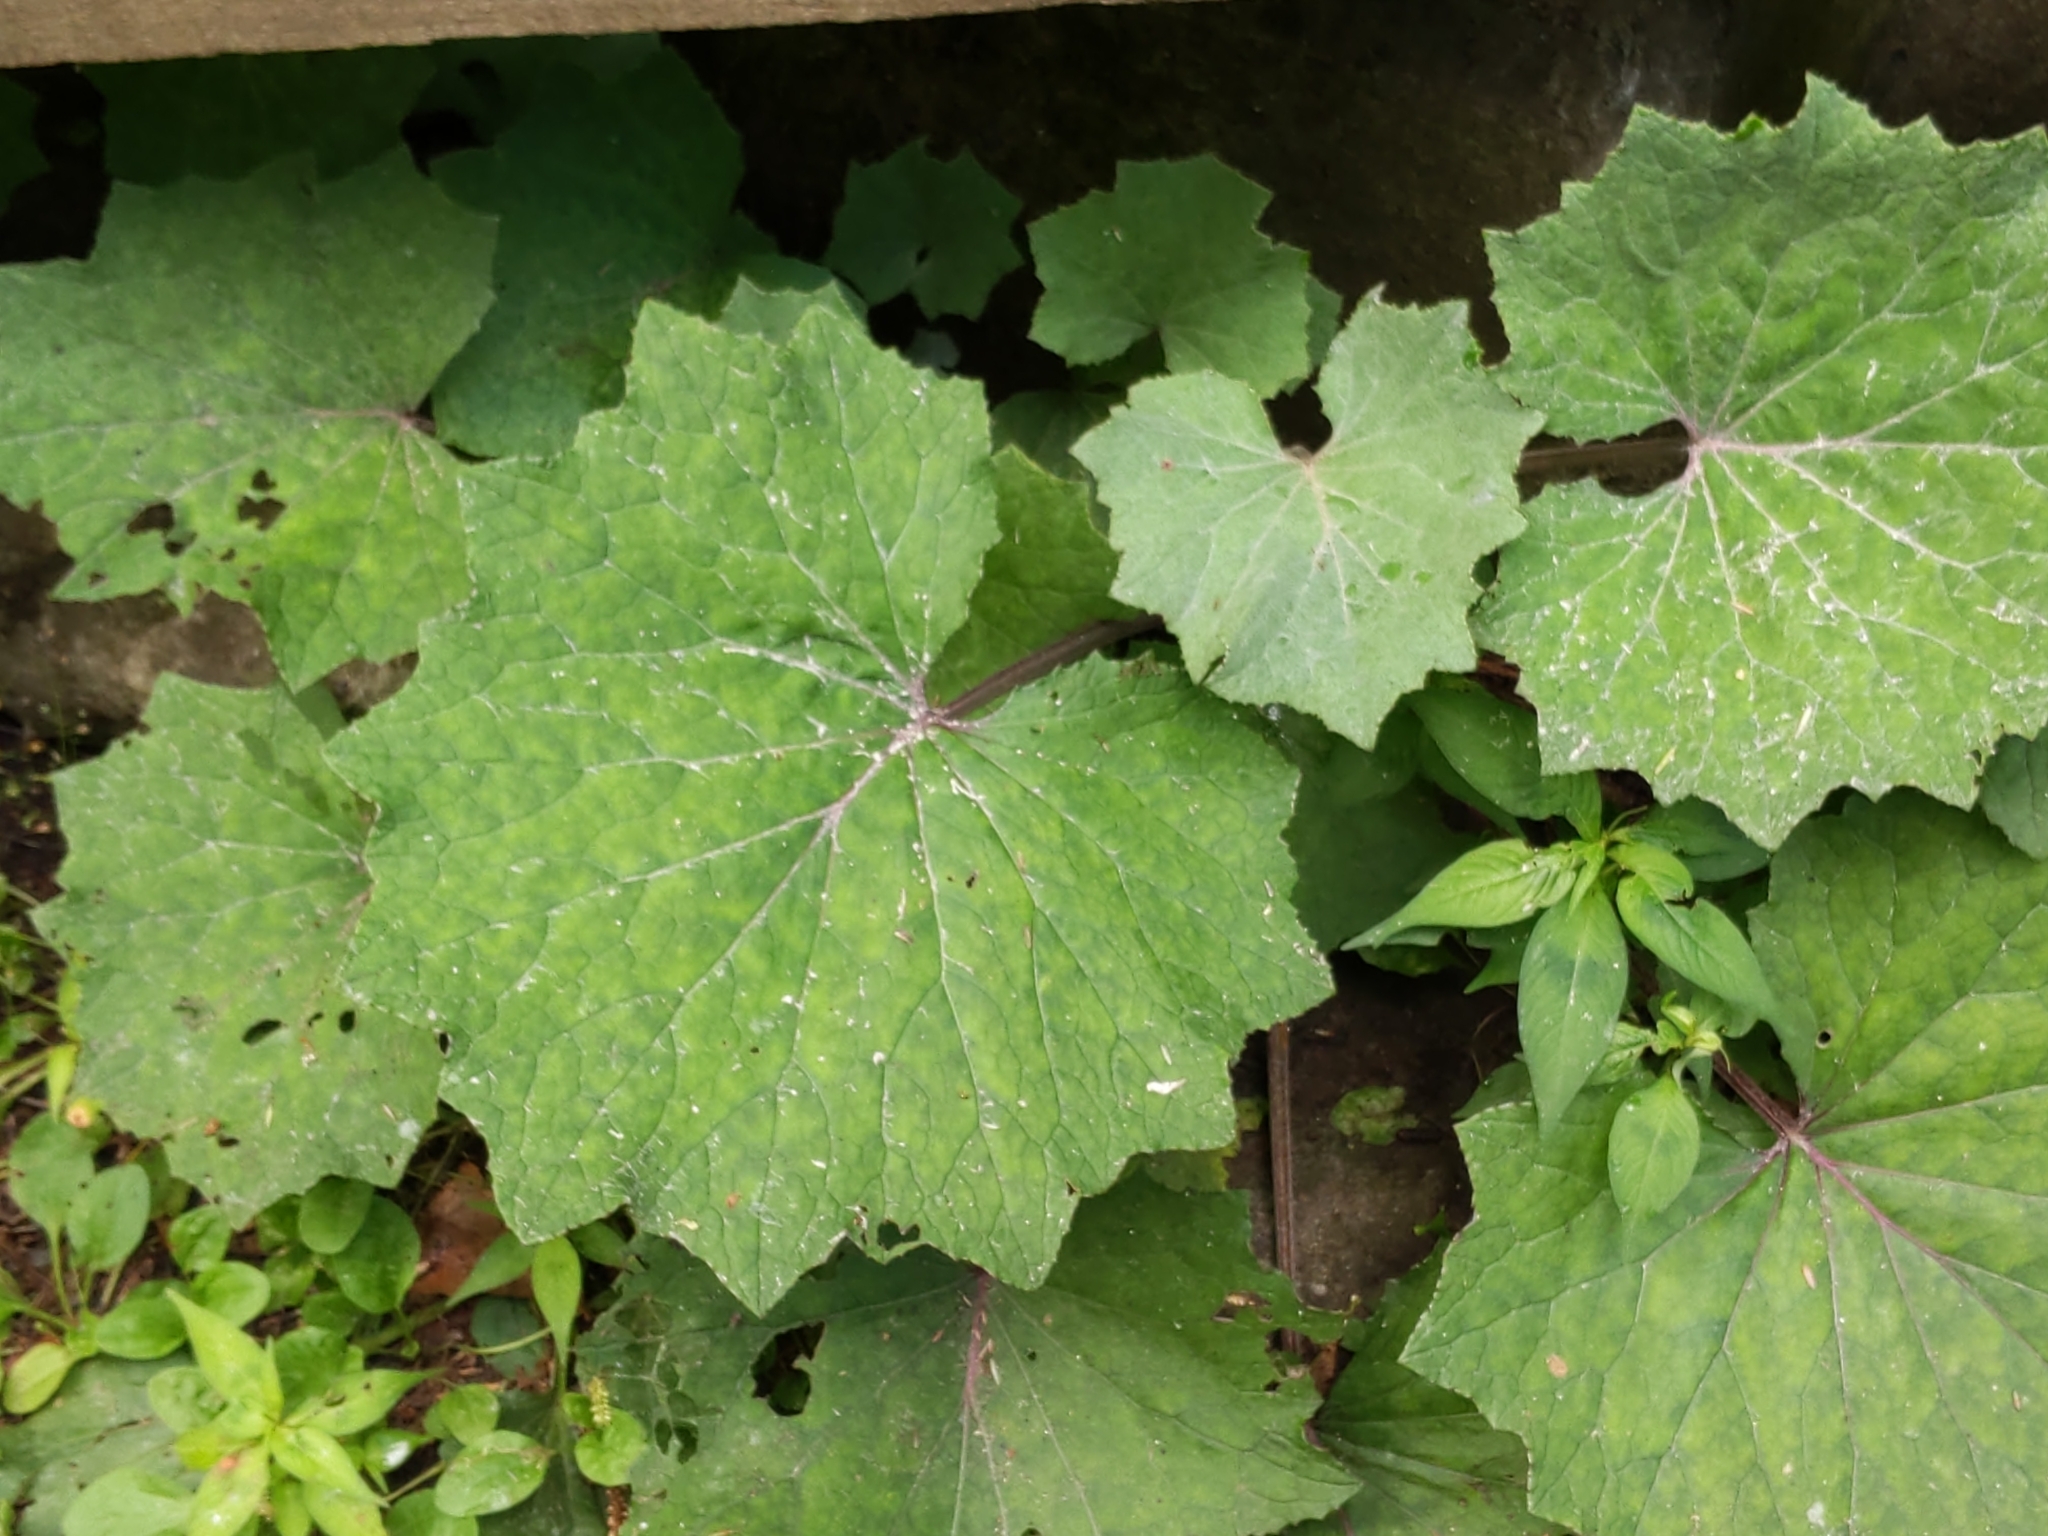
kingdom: Plantae
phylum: Tracheophyta
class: Magnoliopsida
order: Asterales
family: Asteraceae
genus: Tussilago
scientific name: Tussilago farfara
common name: Coltsfoot
